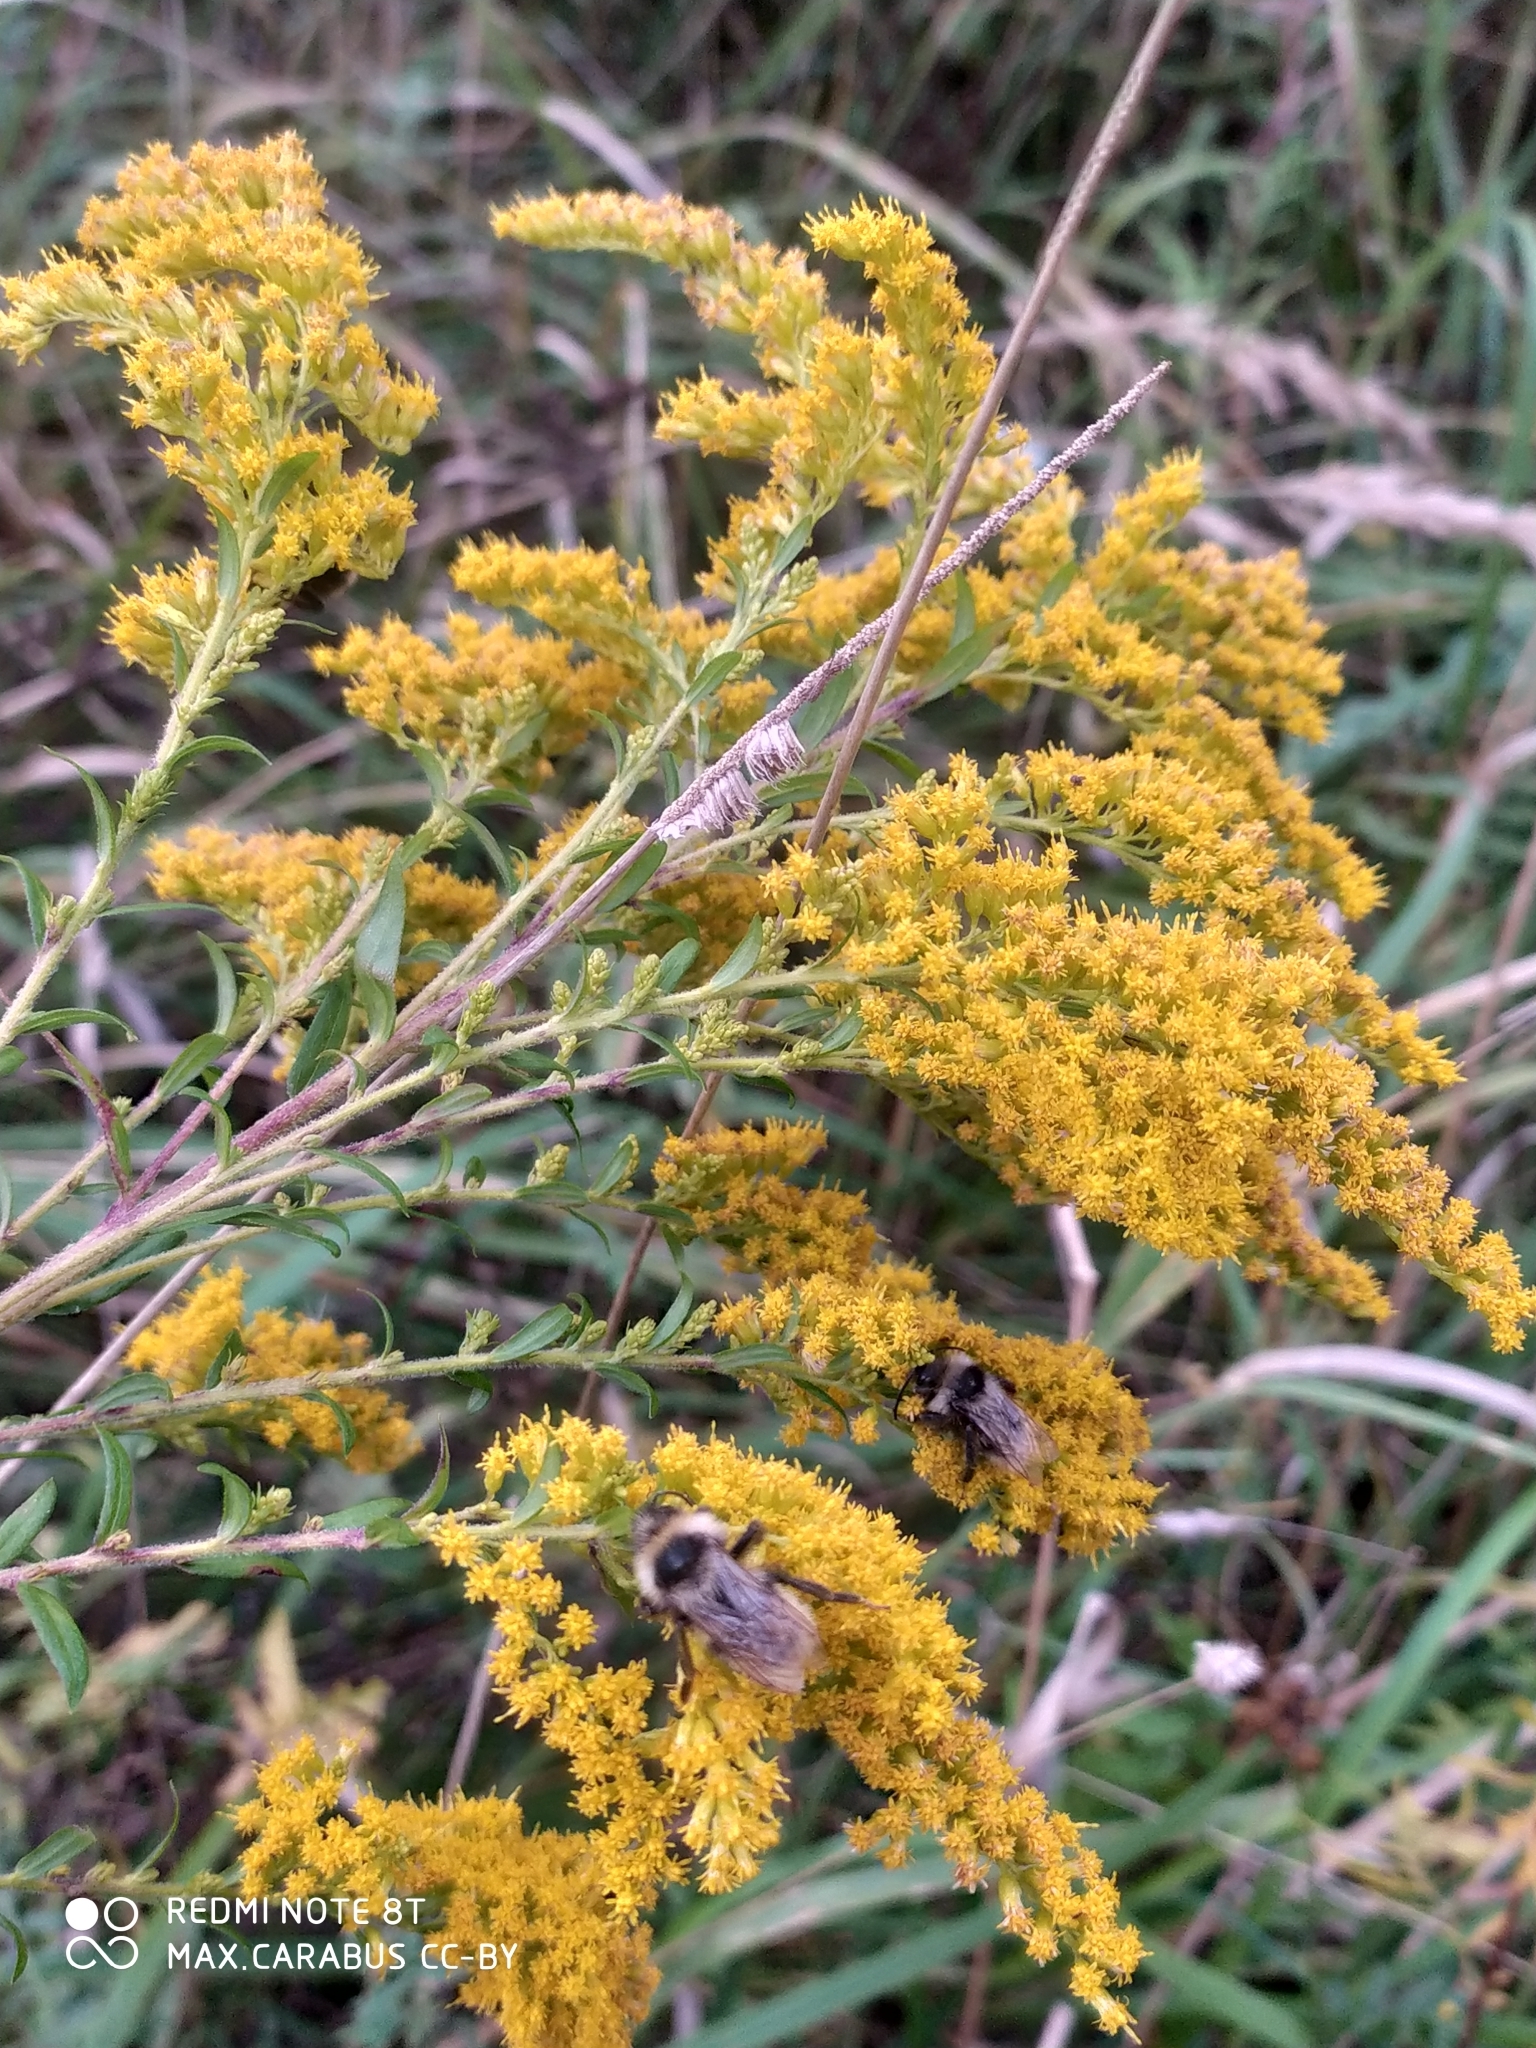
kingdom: Plantae
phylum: Tracheophyta
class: Magnoliopsida
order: Asterales
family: Asteraceae
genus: Solidago
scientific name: Solidago canadensis
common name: Canada goldenrod
